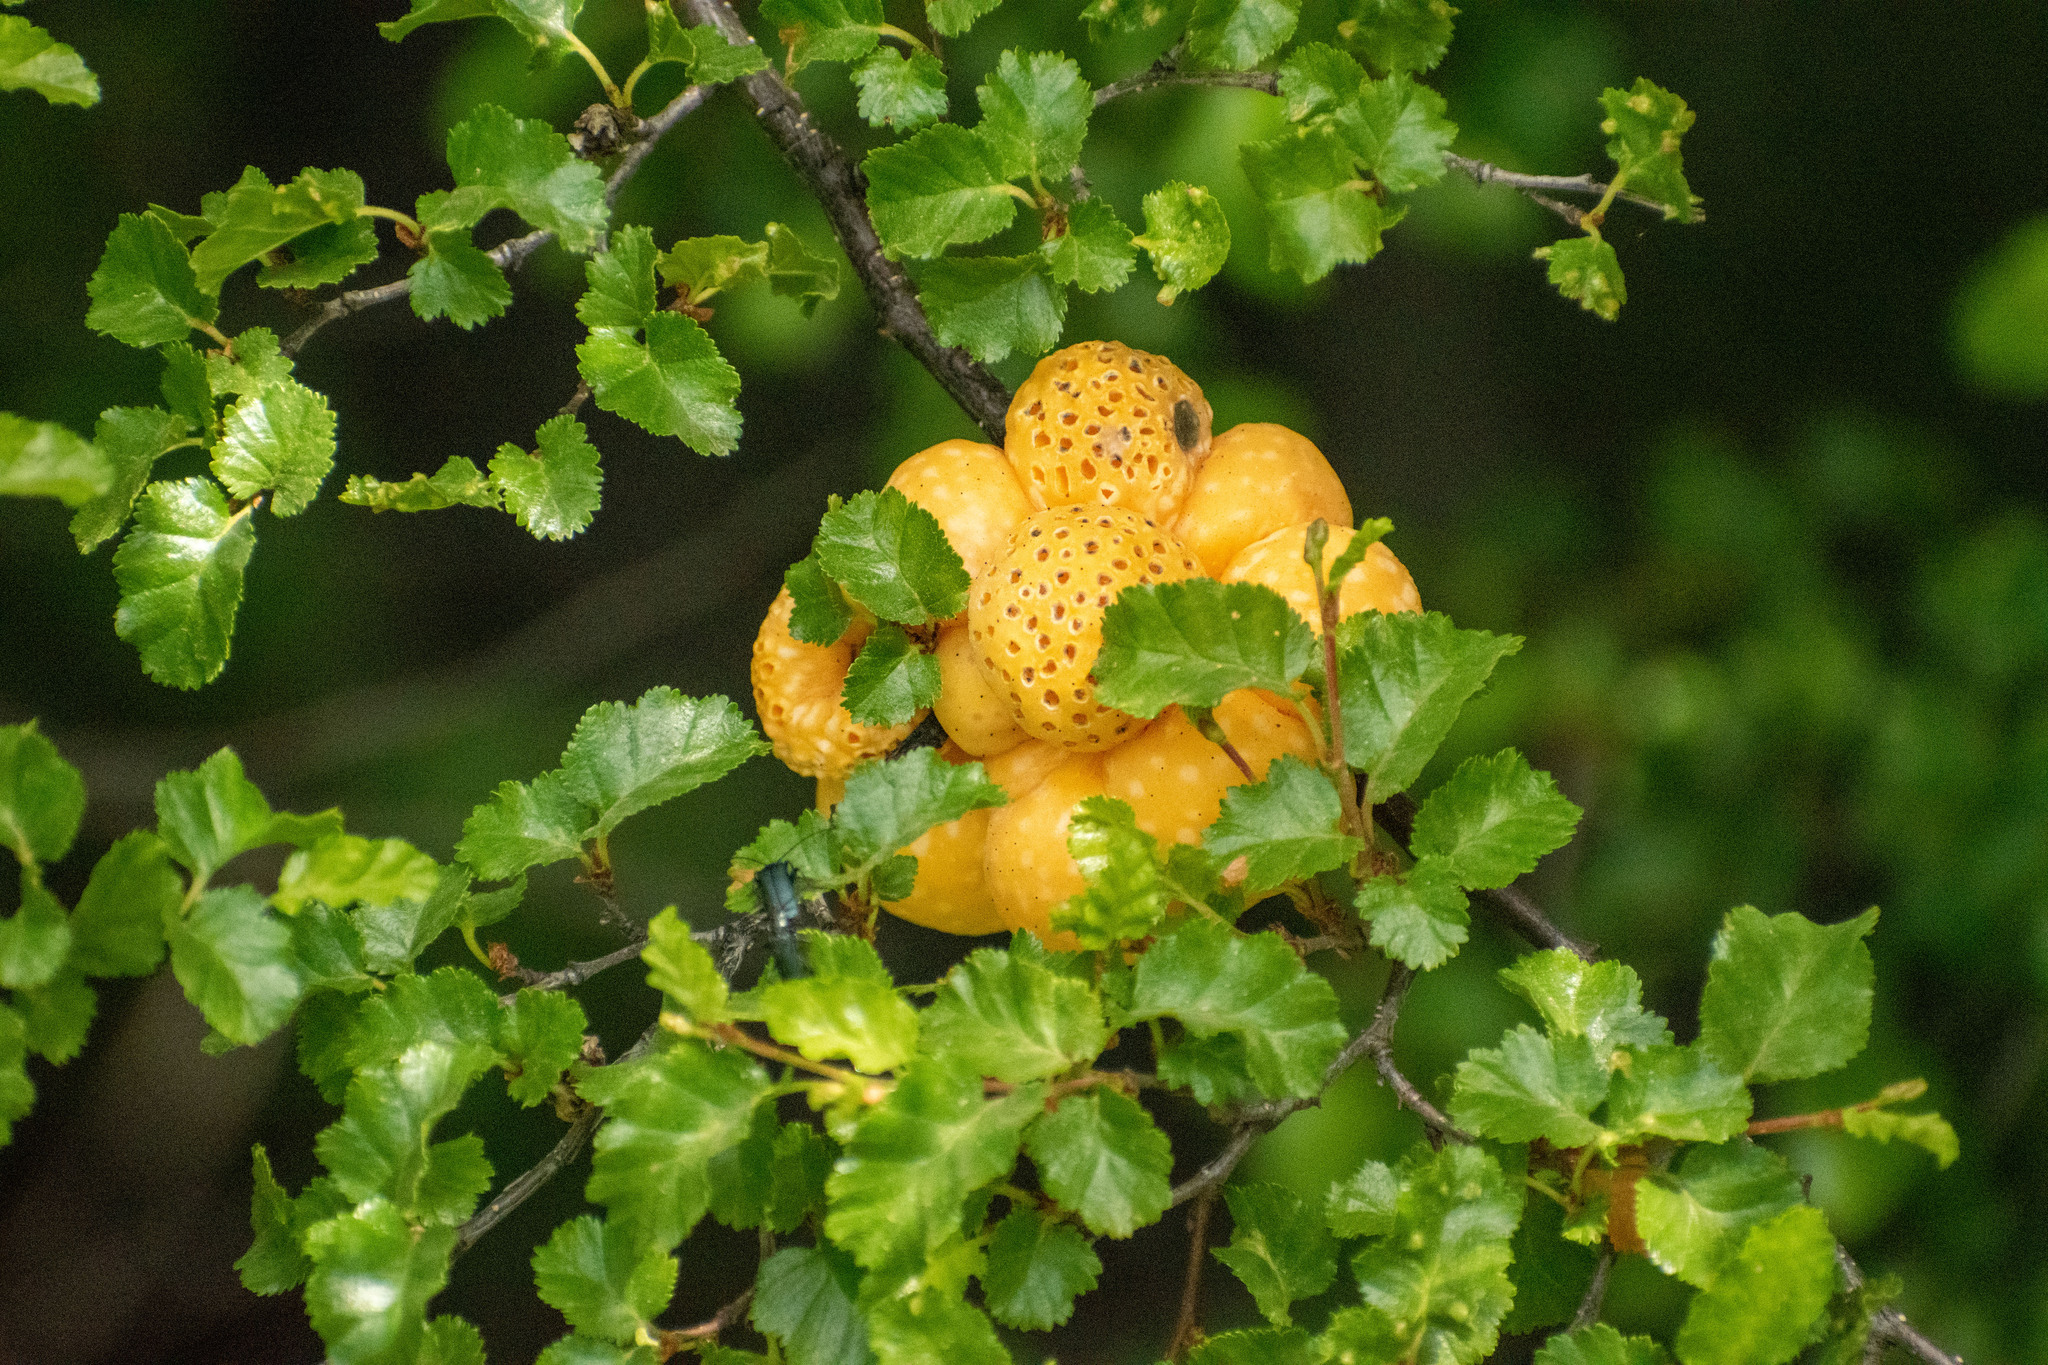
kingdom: Fungi
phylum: Ascomycota
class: Leotiomycetes
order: Cyttariales
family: Cyttariaceae
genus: Cyttaria
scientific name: Cyttaria hariotii
